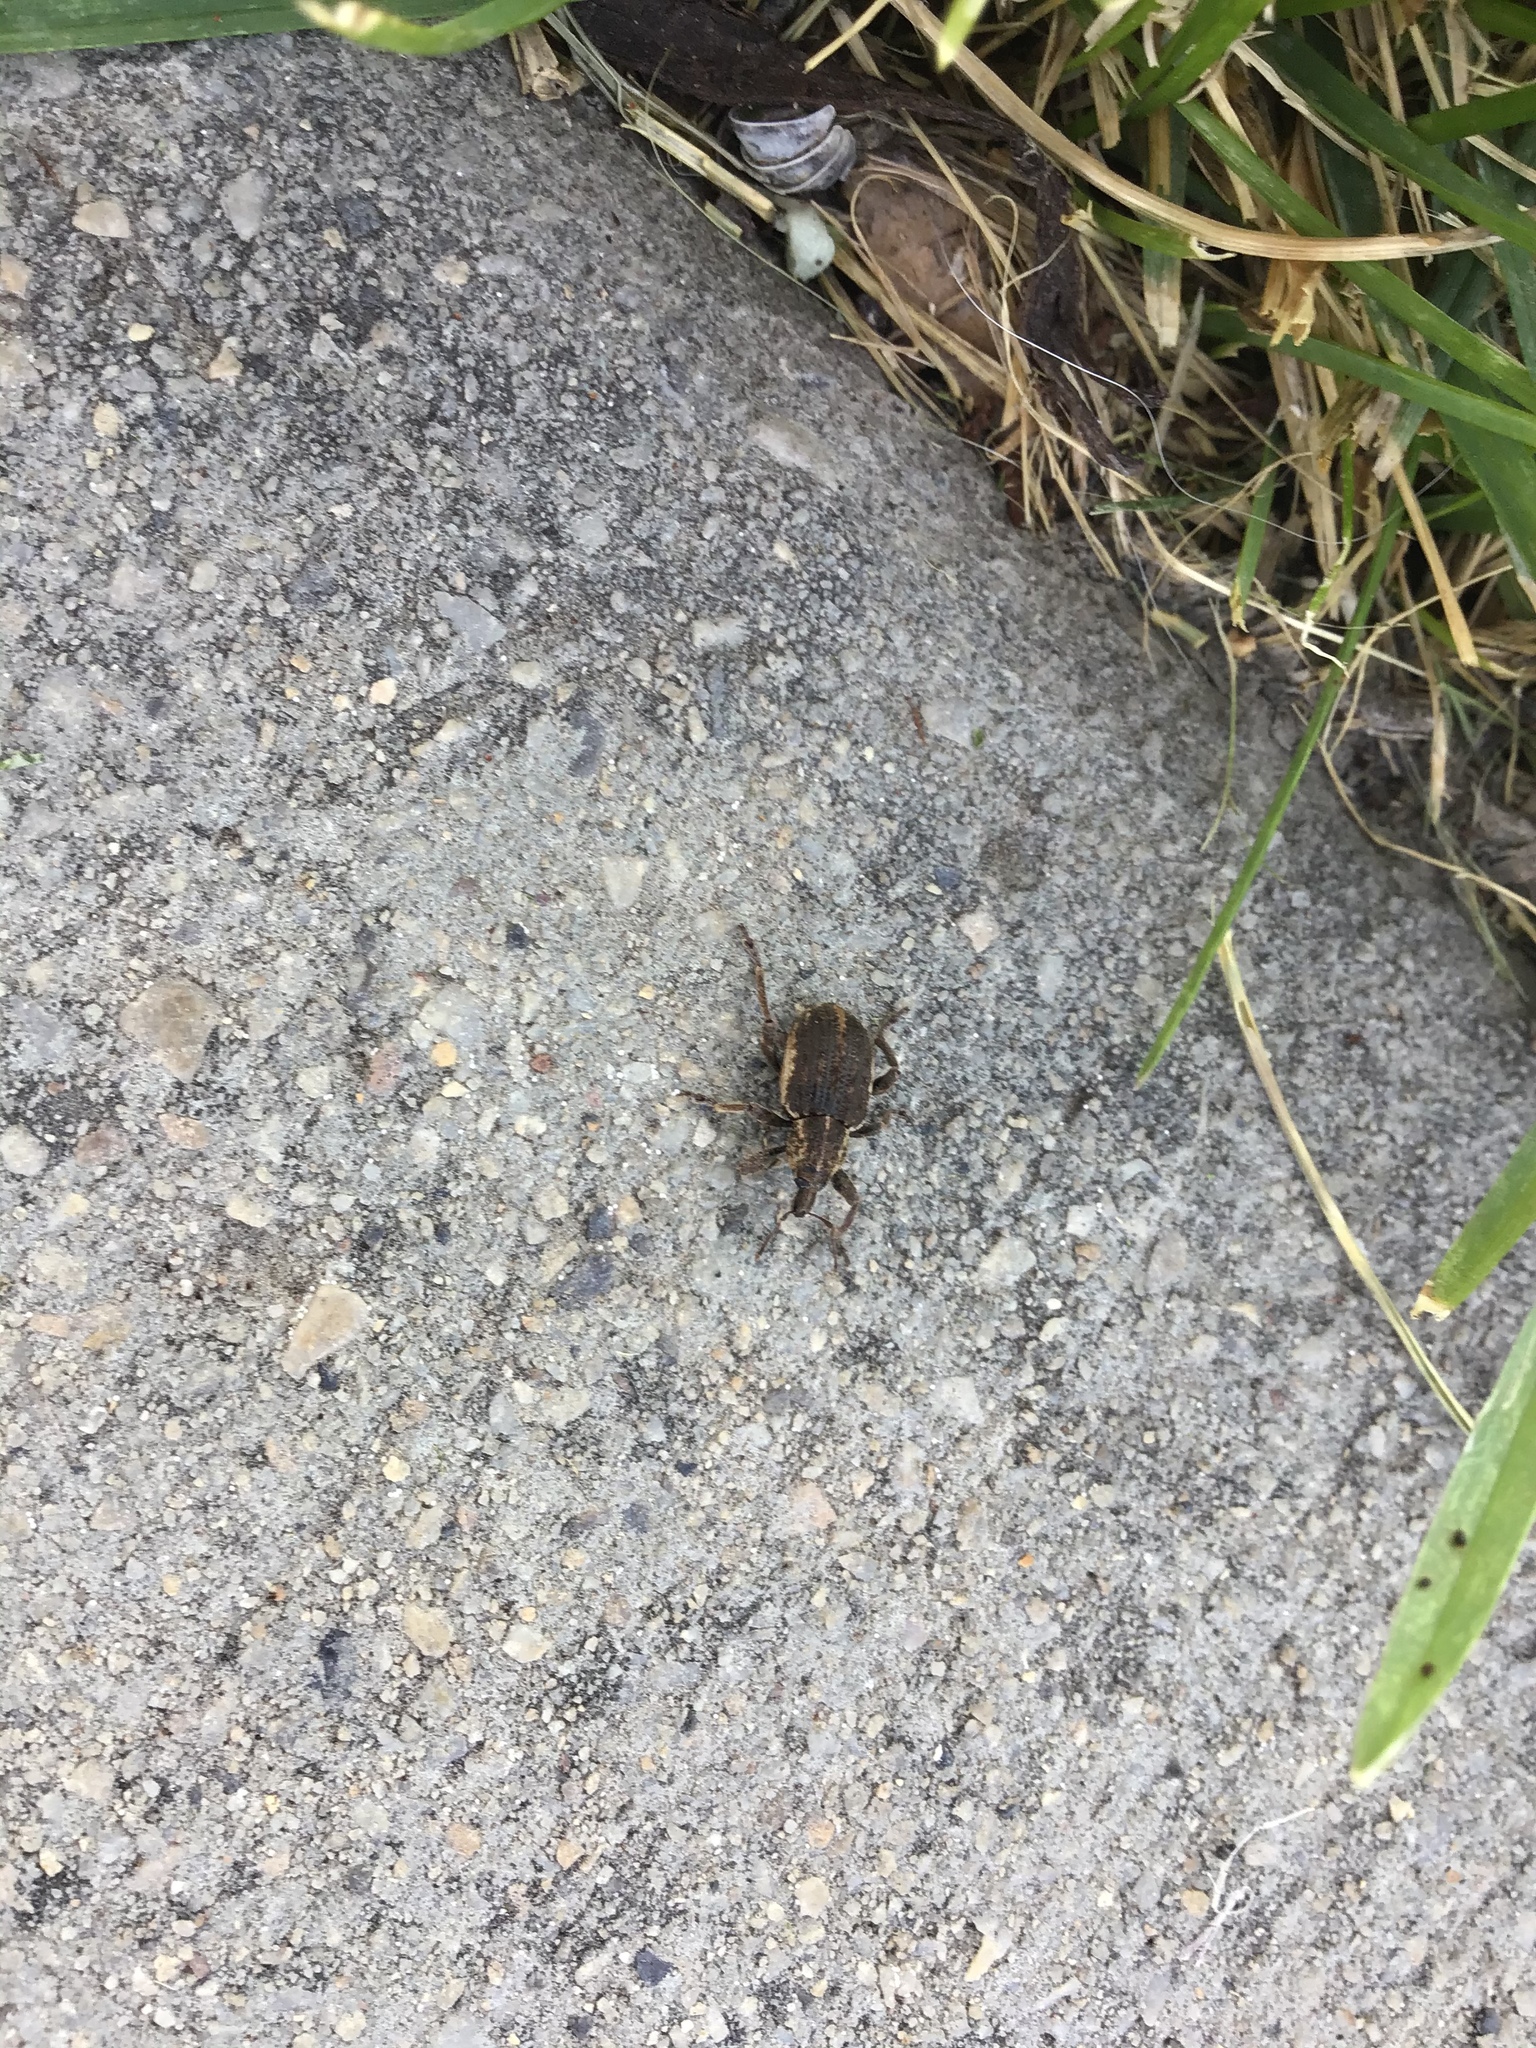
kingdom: Animalia
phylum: Arthropoda
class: Insecta
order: Coleoptera
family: Curculionidae
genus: Brachypera
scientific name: Brachypera zoilus
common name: Clover leaf weevil
